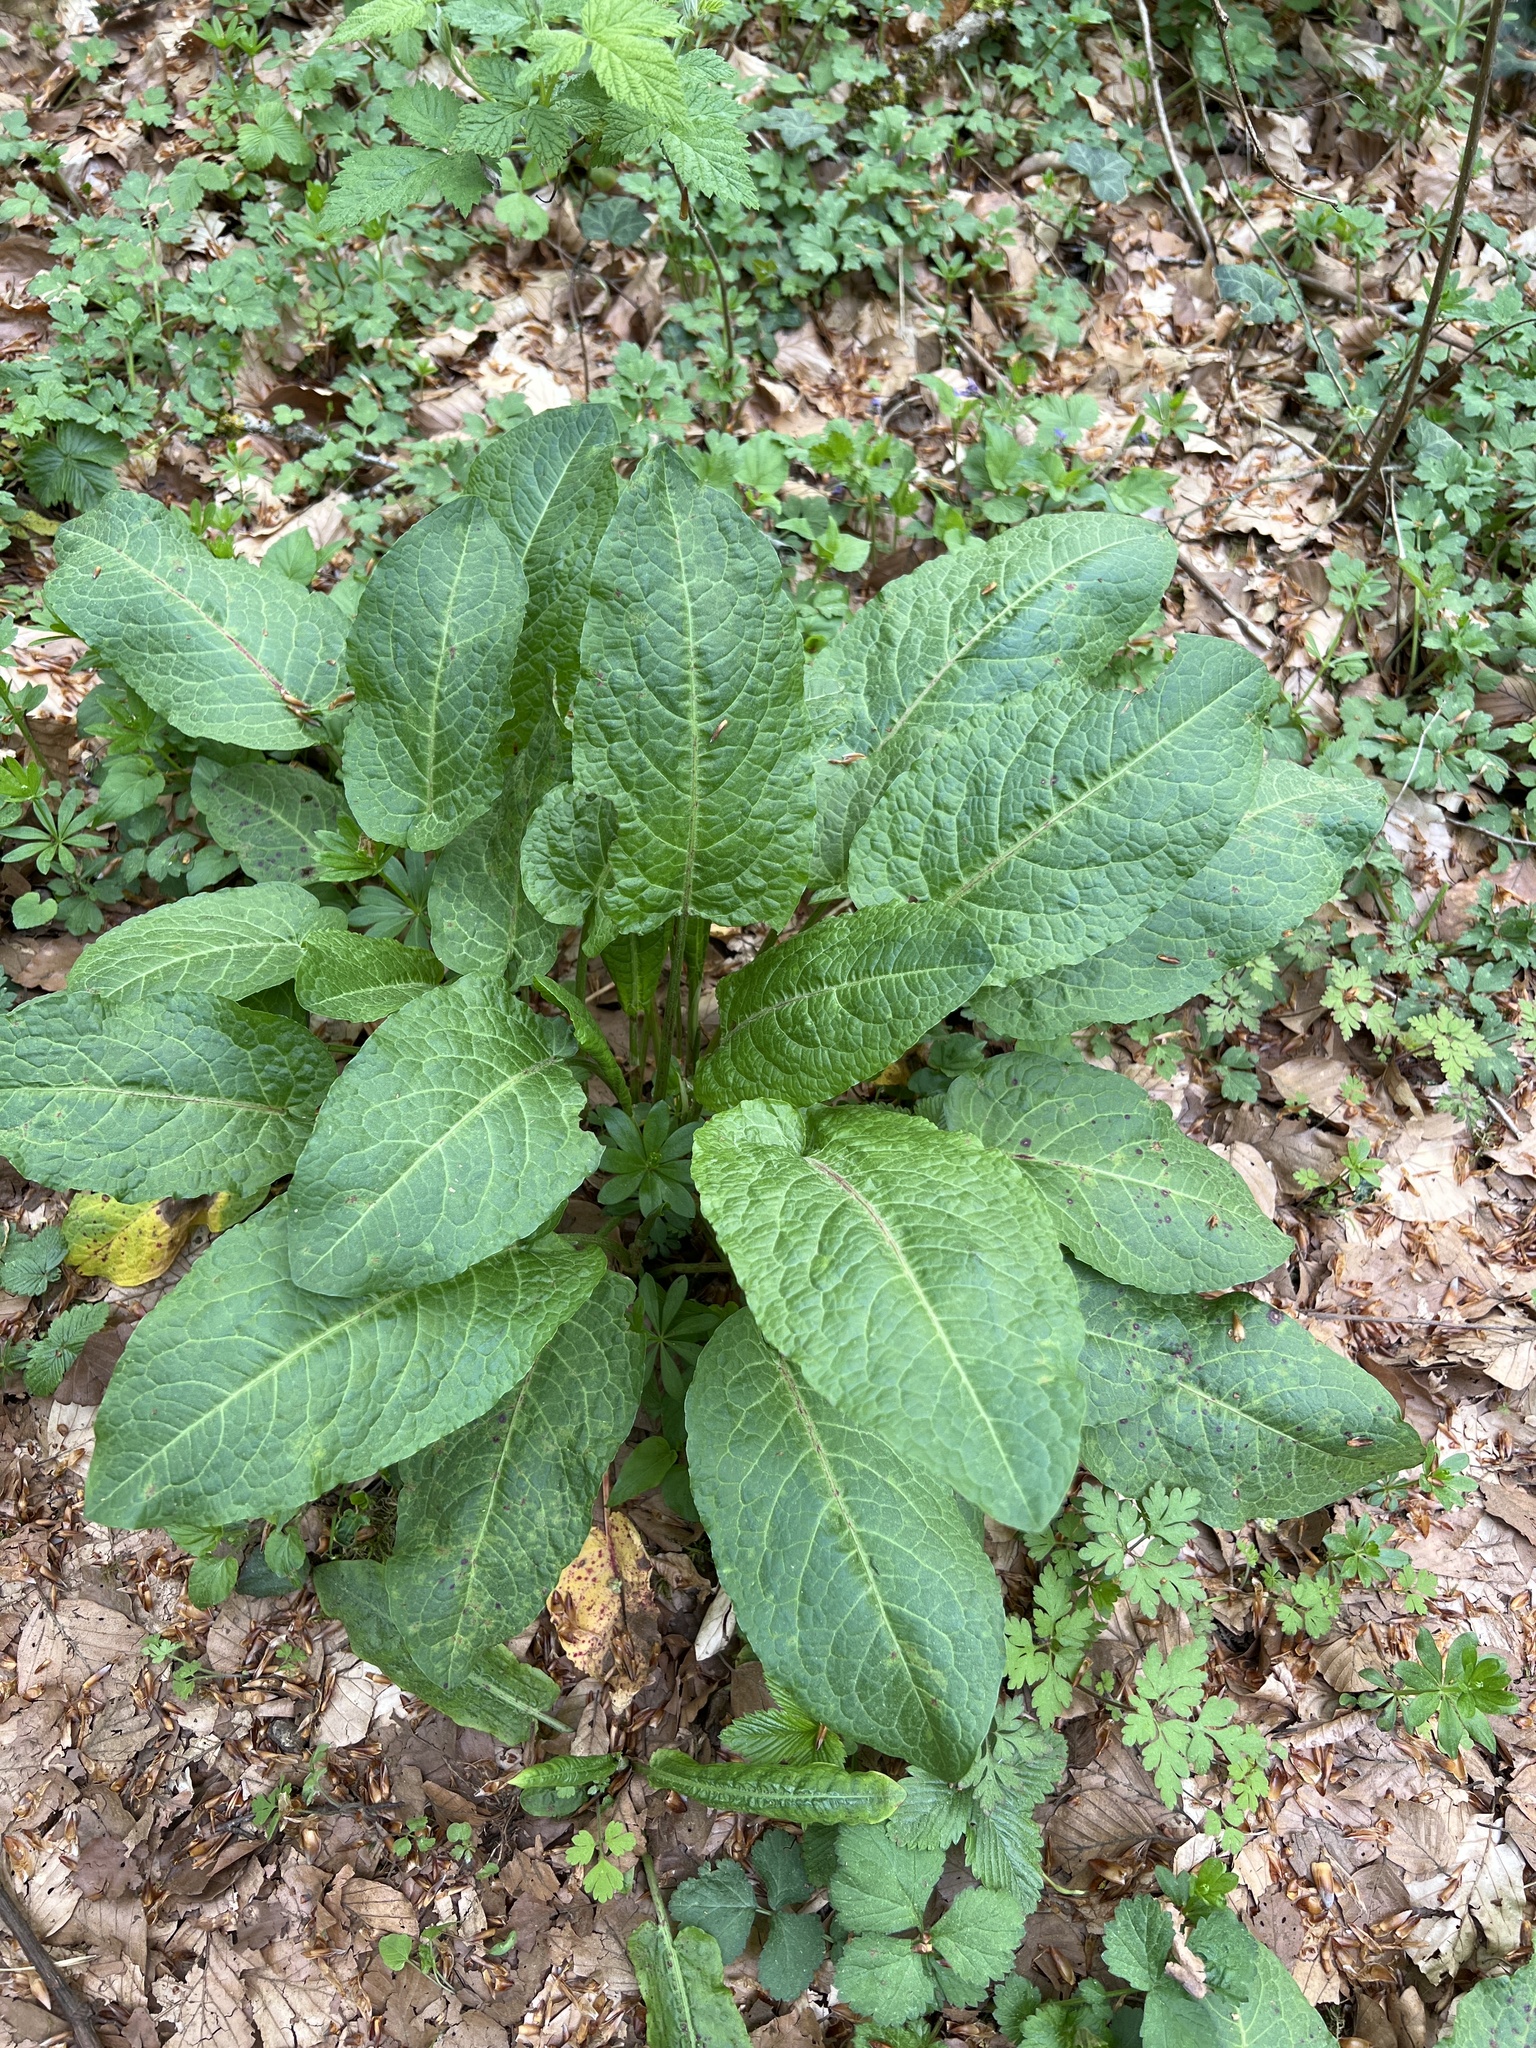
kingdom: Plantae
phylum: Tracheophyta
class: Magnoliopsida
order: Caryophyllales
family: Polygonaceae
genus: Rumex
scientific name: Rumex obtusifolius
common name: Bitter dock
